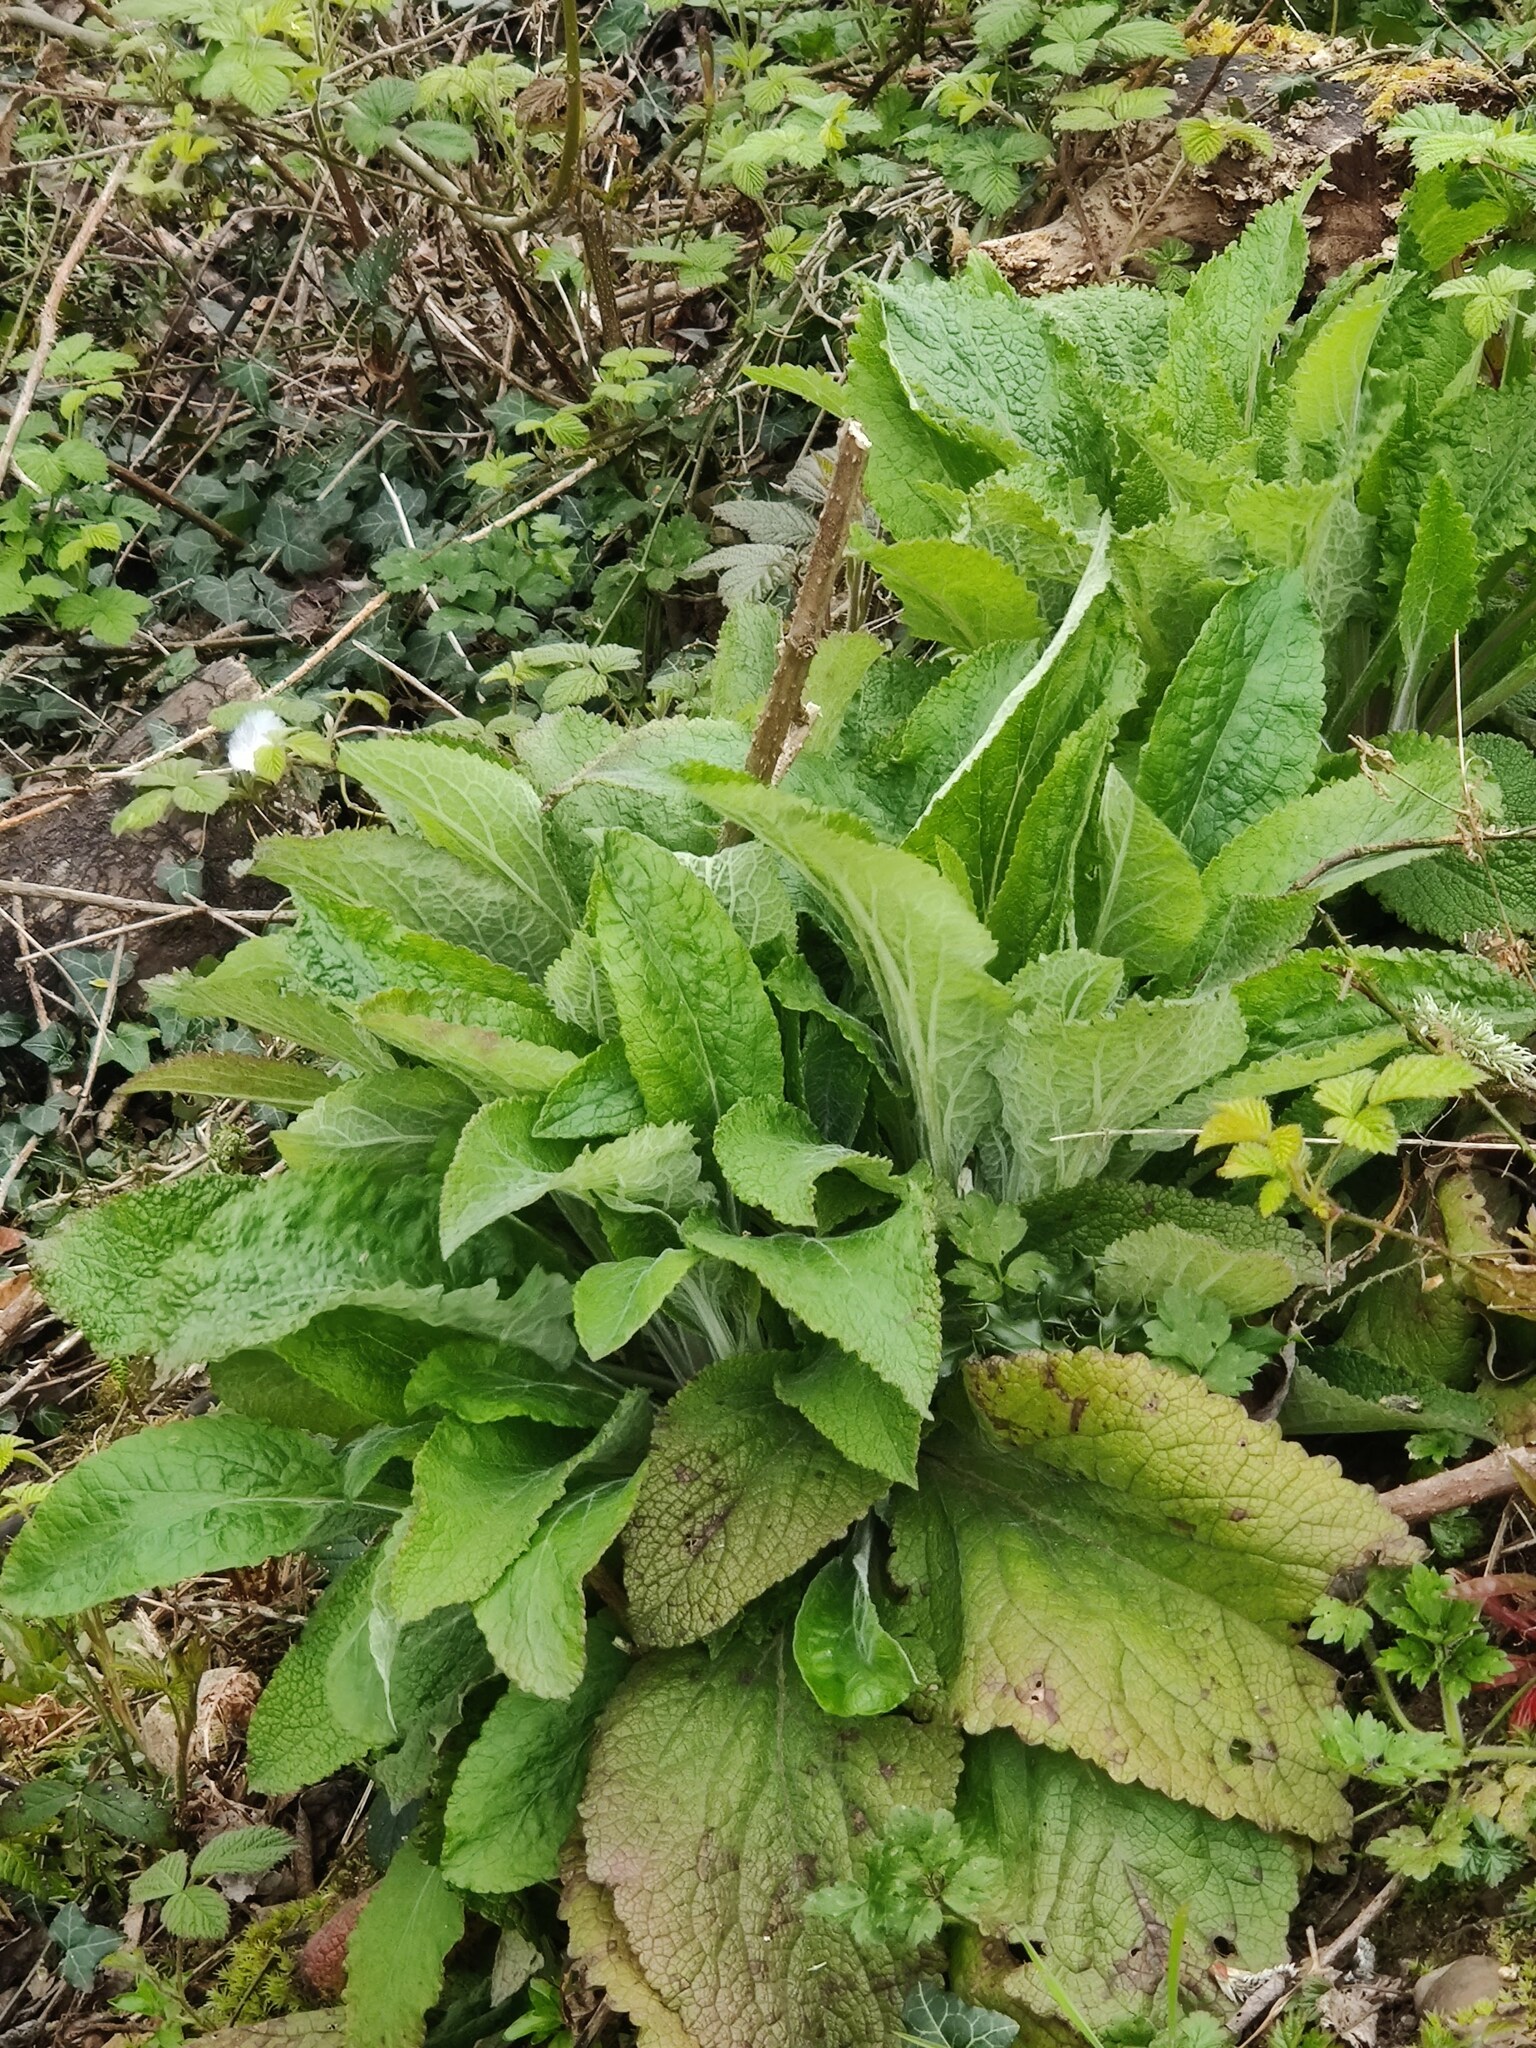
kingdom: Plantae
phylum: Tracheophyta
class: Magnoliopsida
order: Lamiales
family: Plantaginaceae
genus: Digitalis
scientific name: Digitalis purpurea
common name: Foxglove
